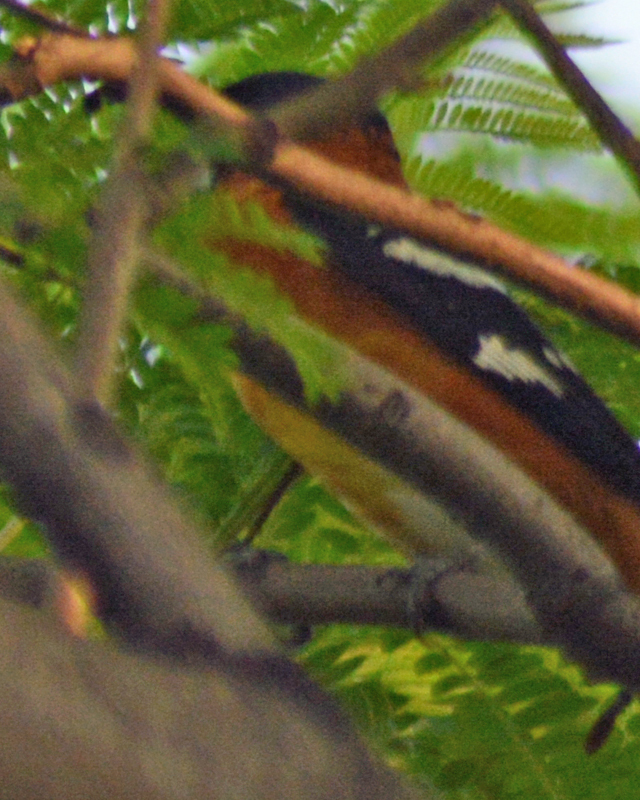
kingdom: Animalia
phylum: Chordata
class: Aves
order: Passeriformes
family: Cardinalidae
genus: Pheucticus
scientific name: Pheucticus melanocephalus
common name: Black-headed grosbeak
